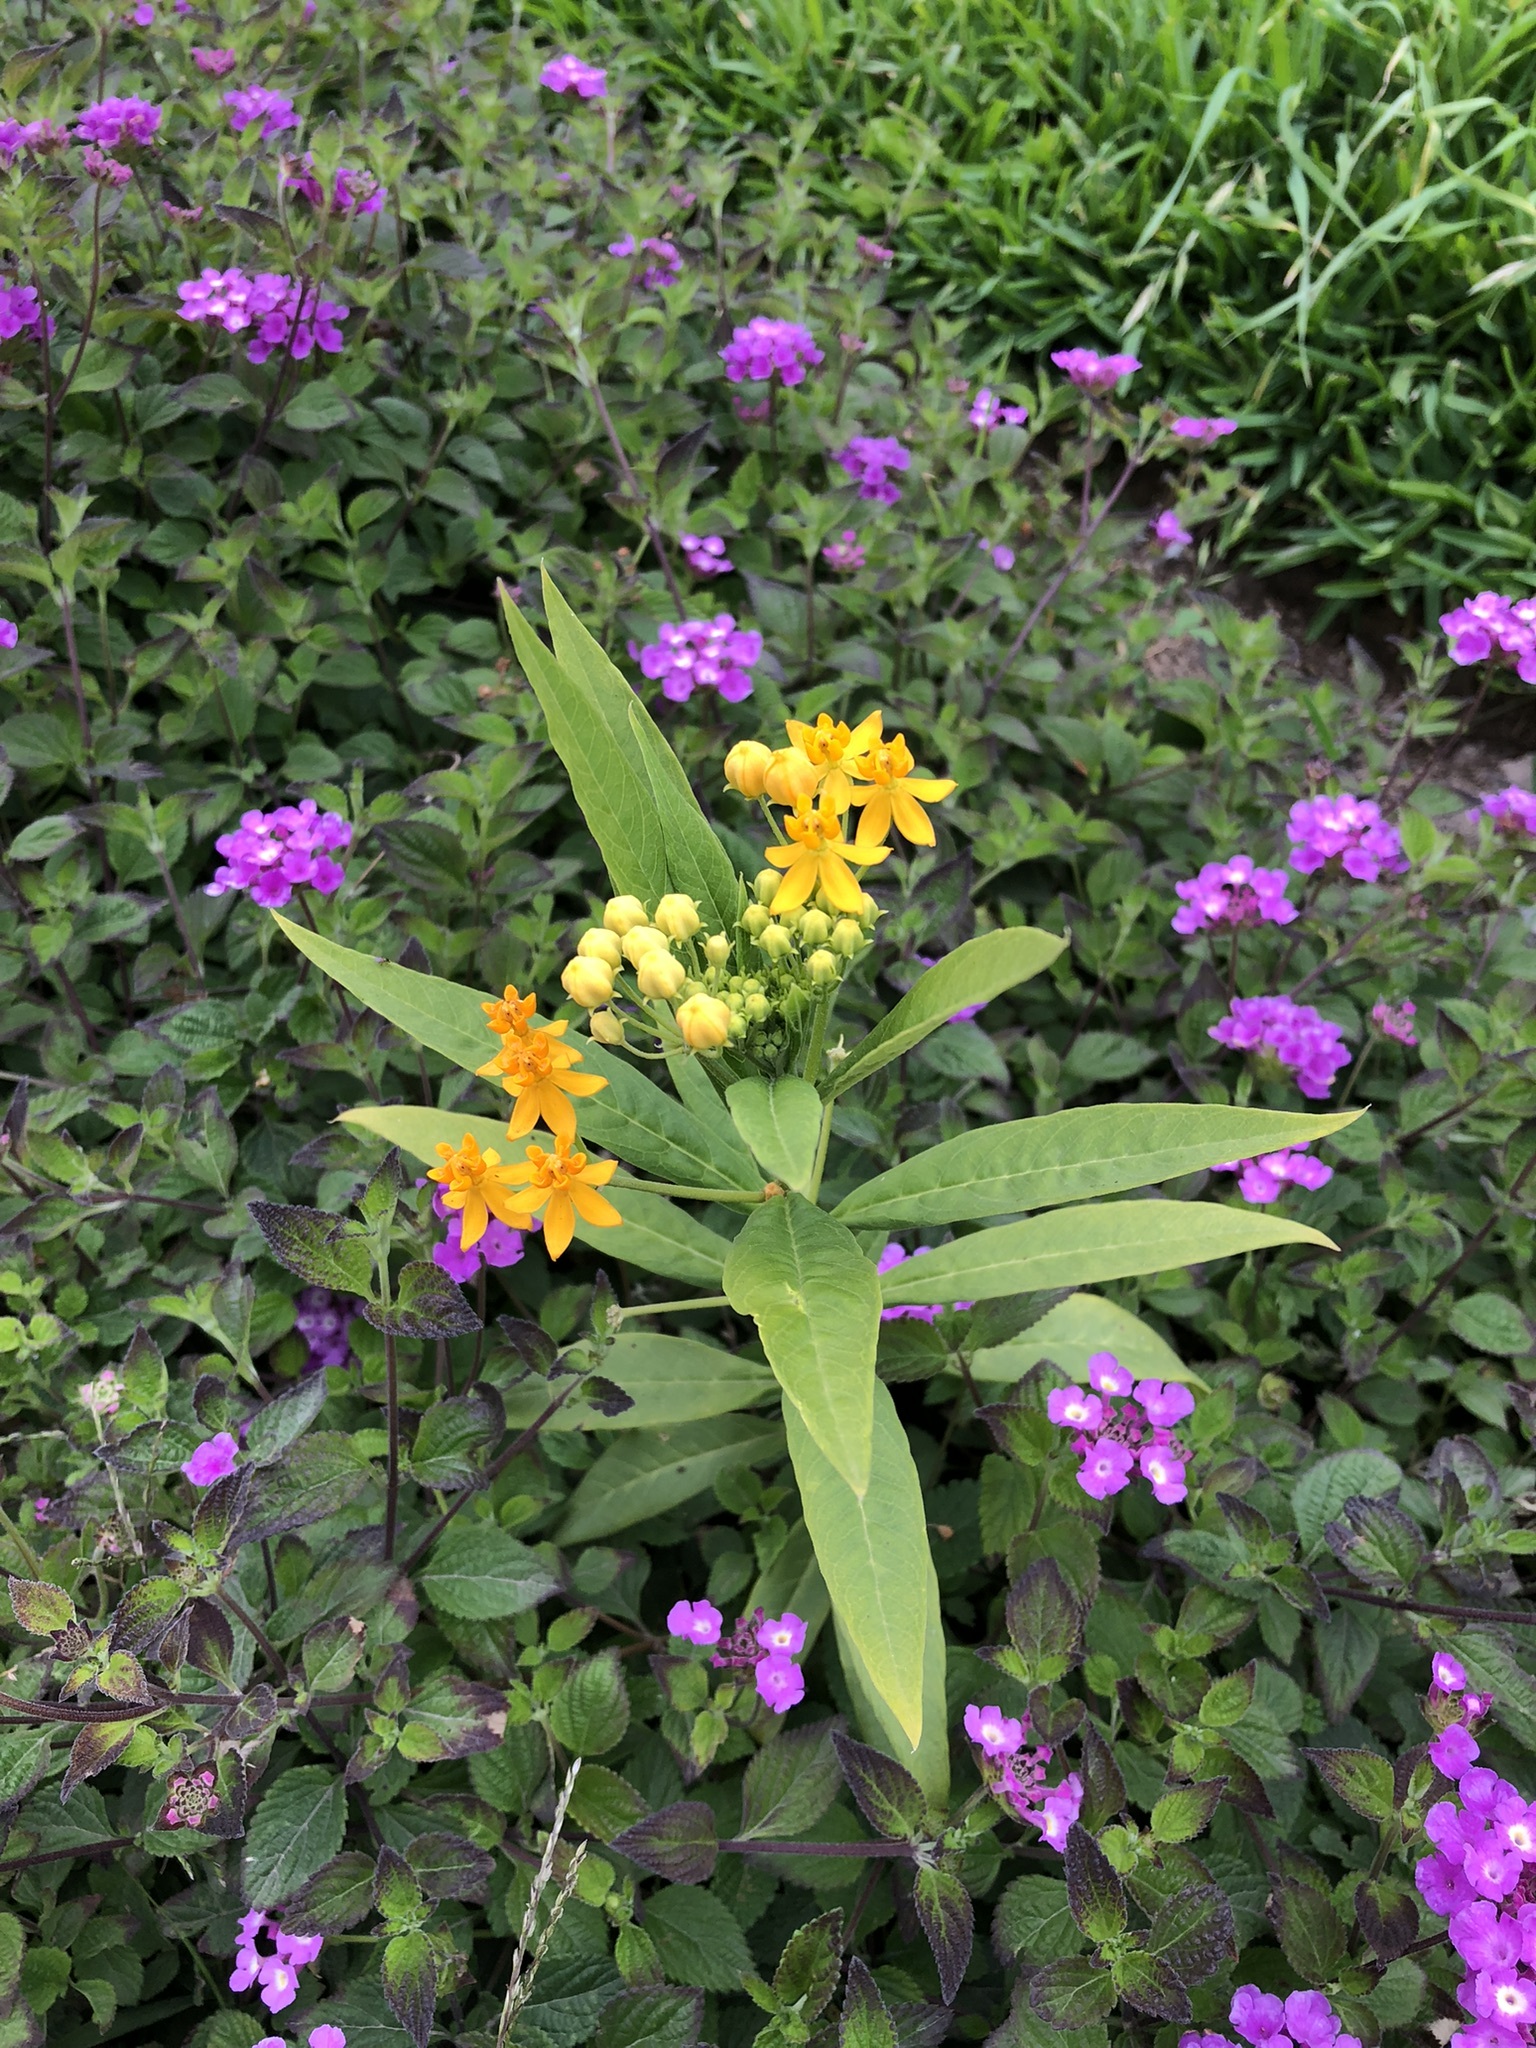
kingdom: Plantae
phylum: Tracheophyta
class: Magnoliopsida
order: Gentianales
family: Apocynaceae
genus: Asclepias
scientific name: Asclepias curassavica
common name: Bloodflower
